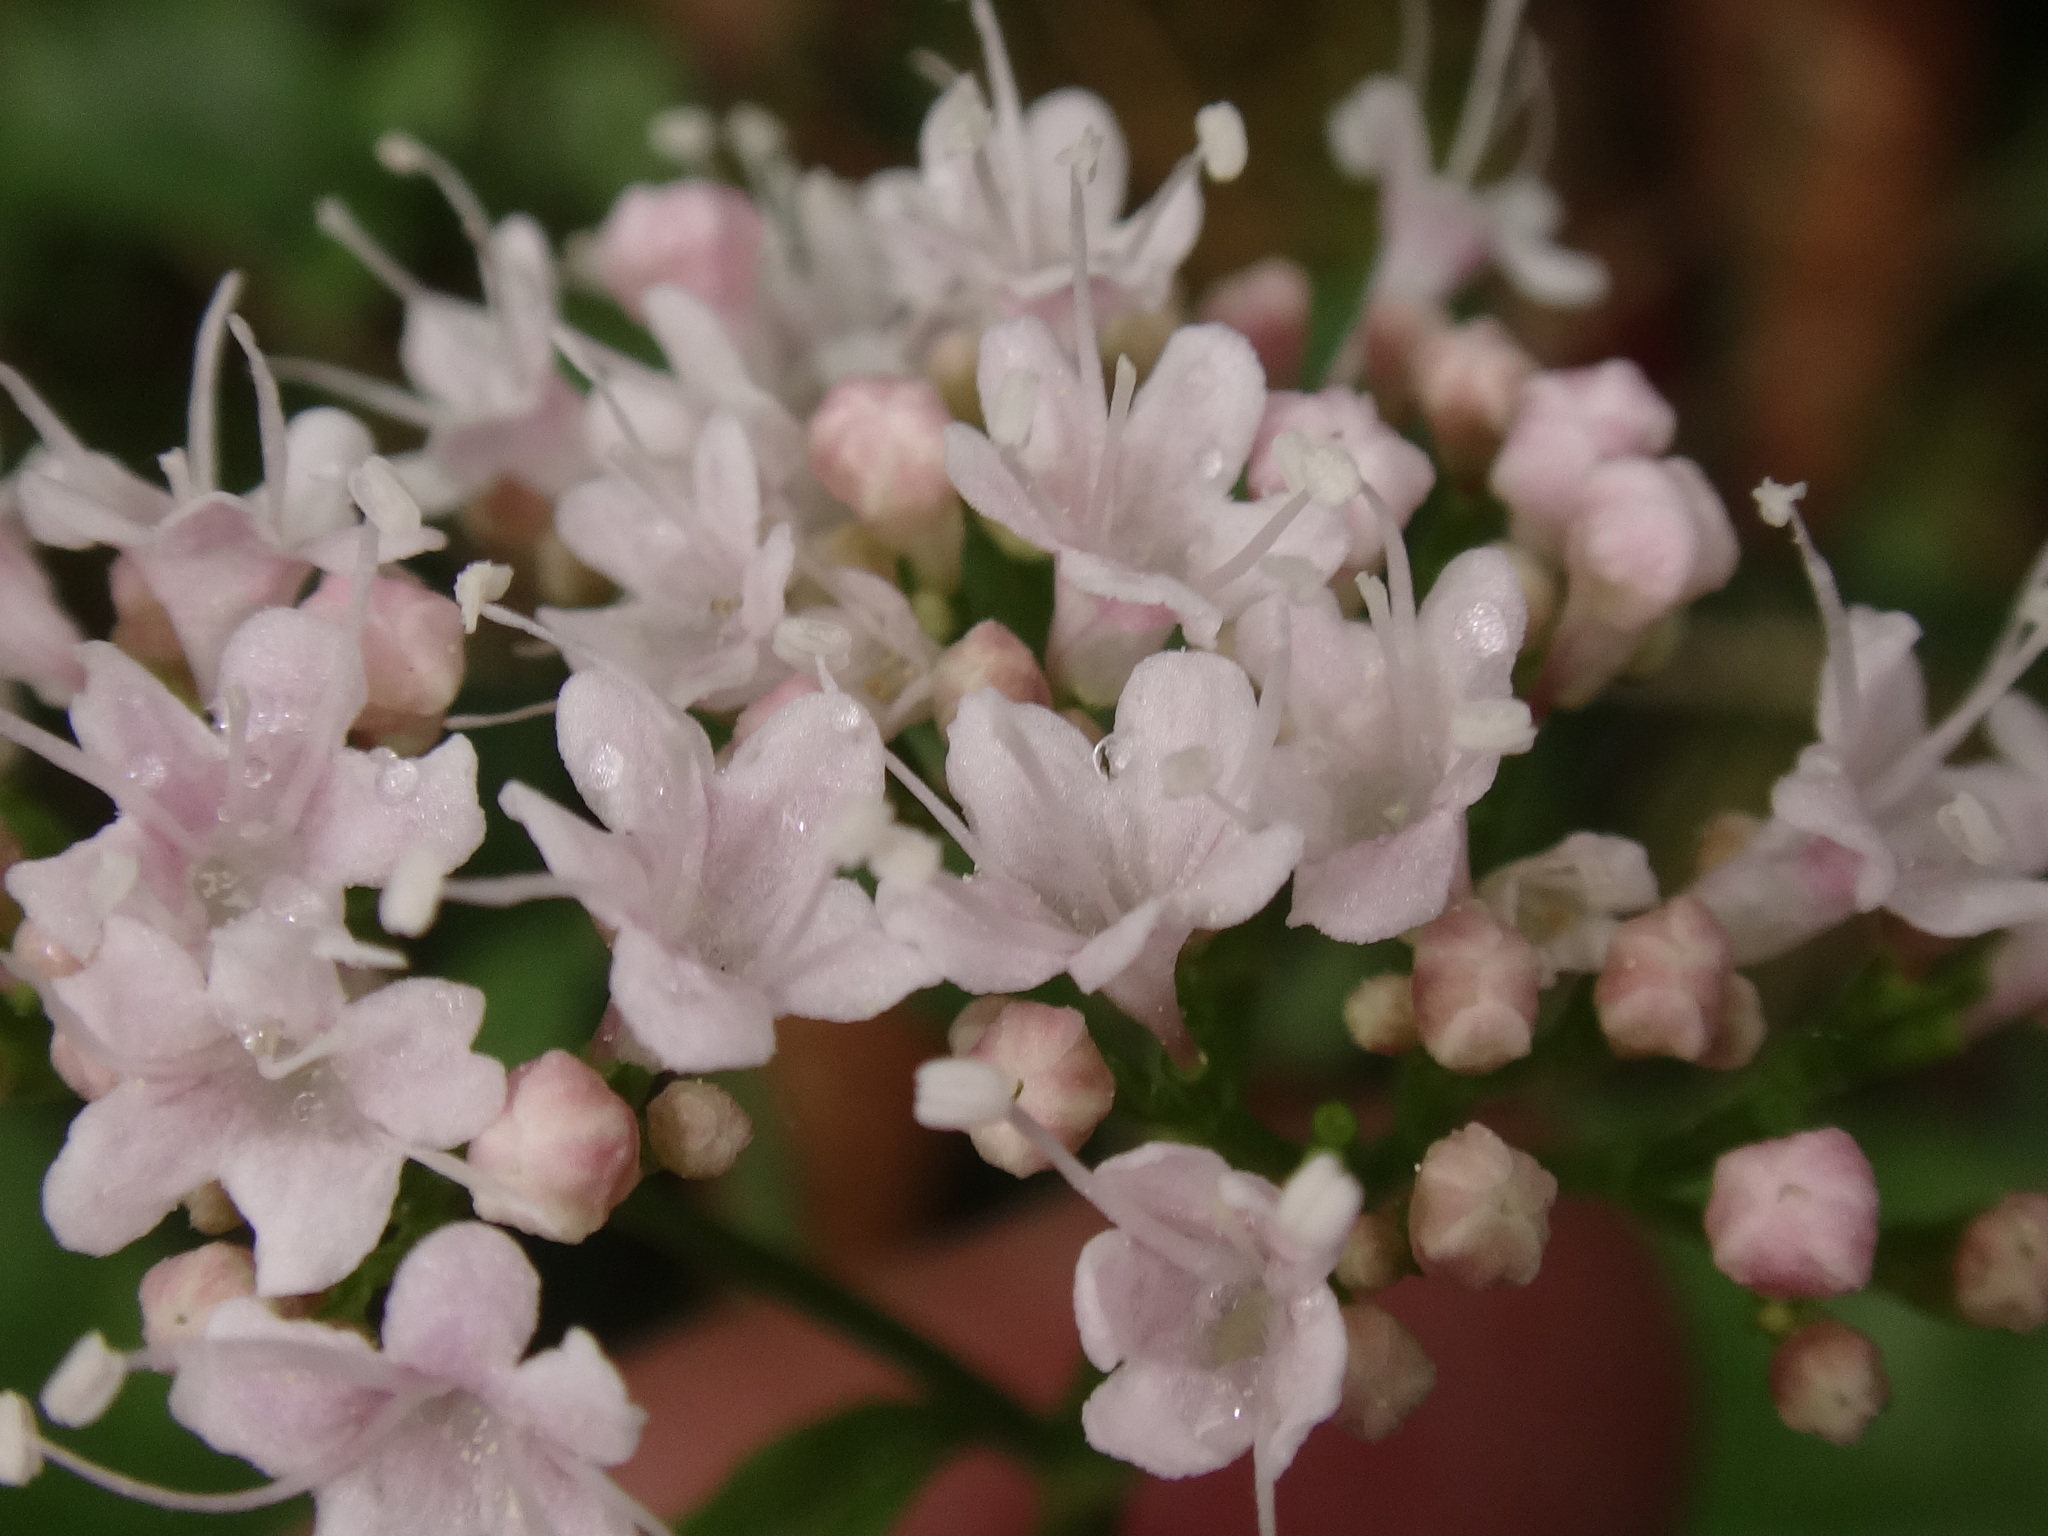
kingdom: Plantae
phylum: Tracheophyta
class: Magnoliopsida
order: Dipsacales
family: Caprifoliaceae
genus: Valeriana
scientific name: Valeriana tripteris
